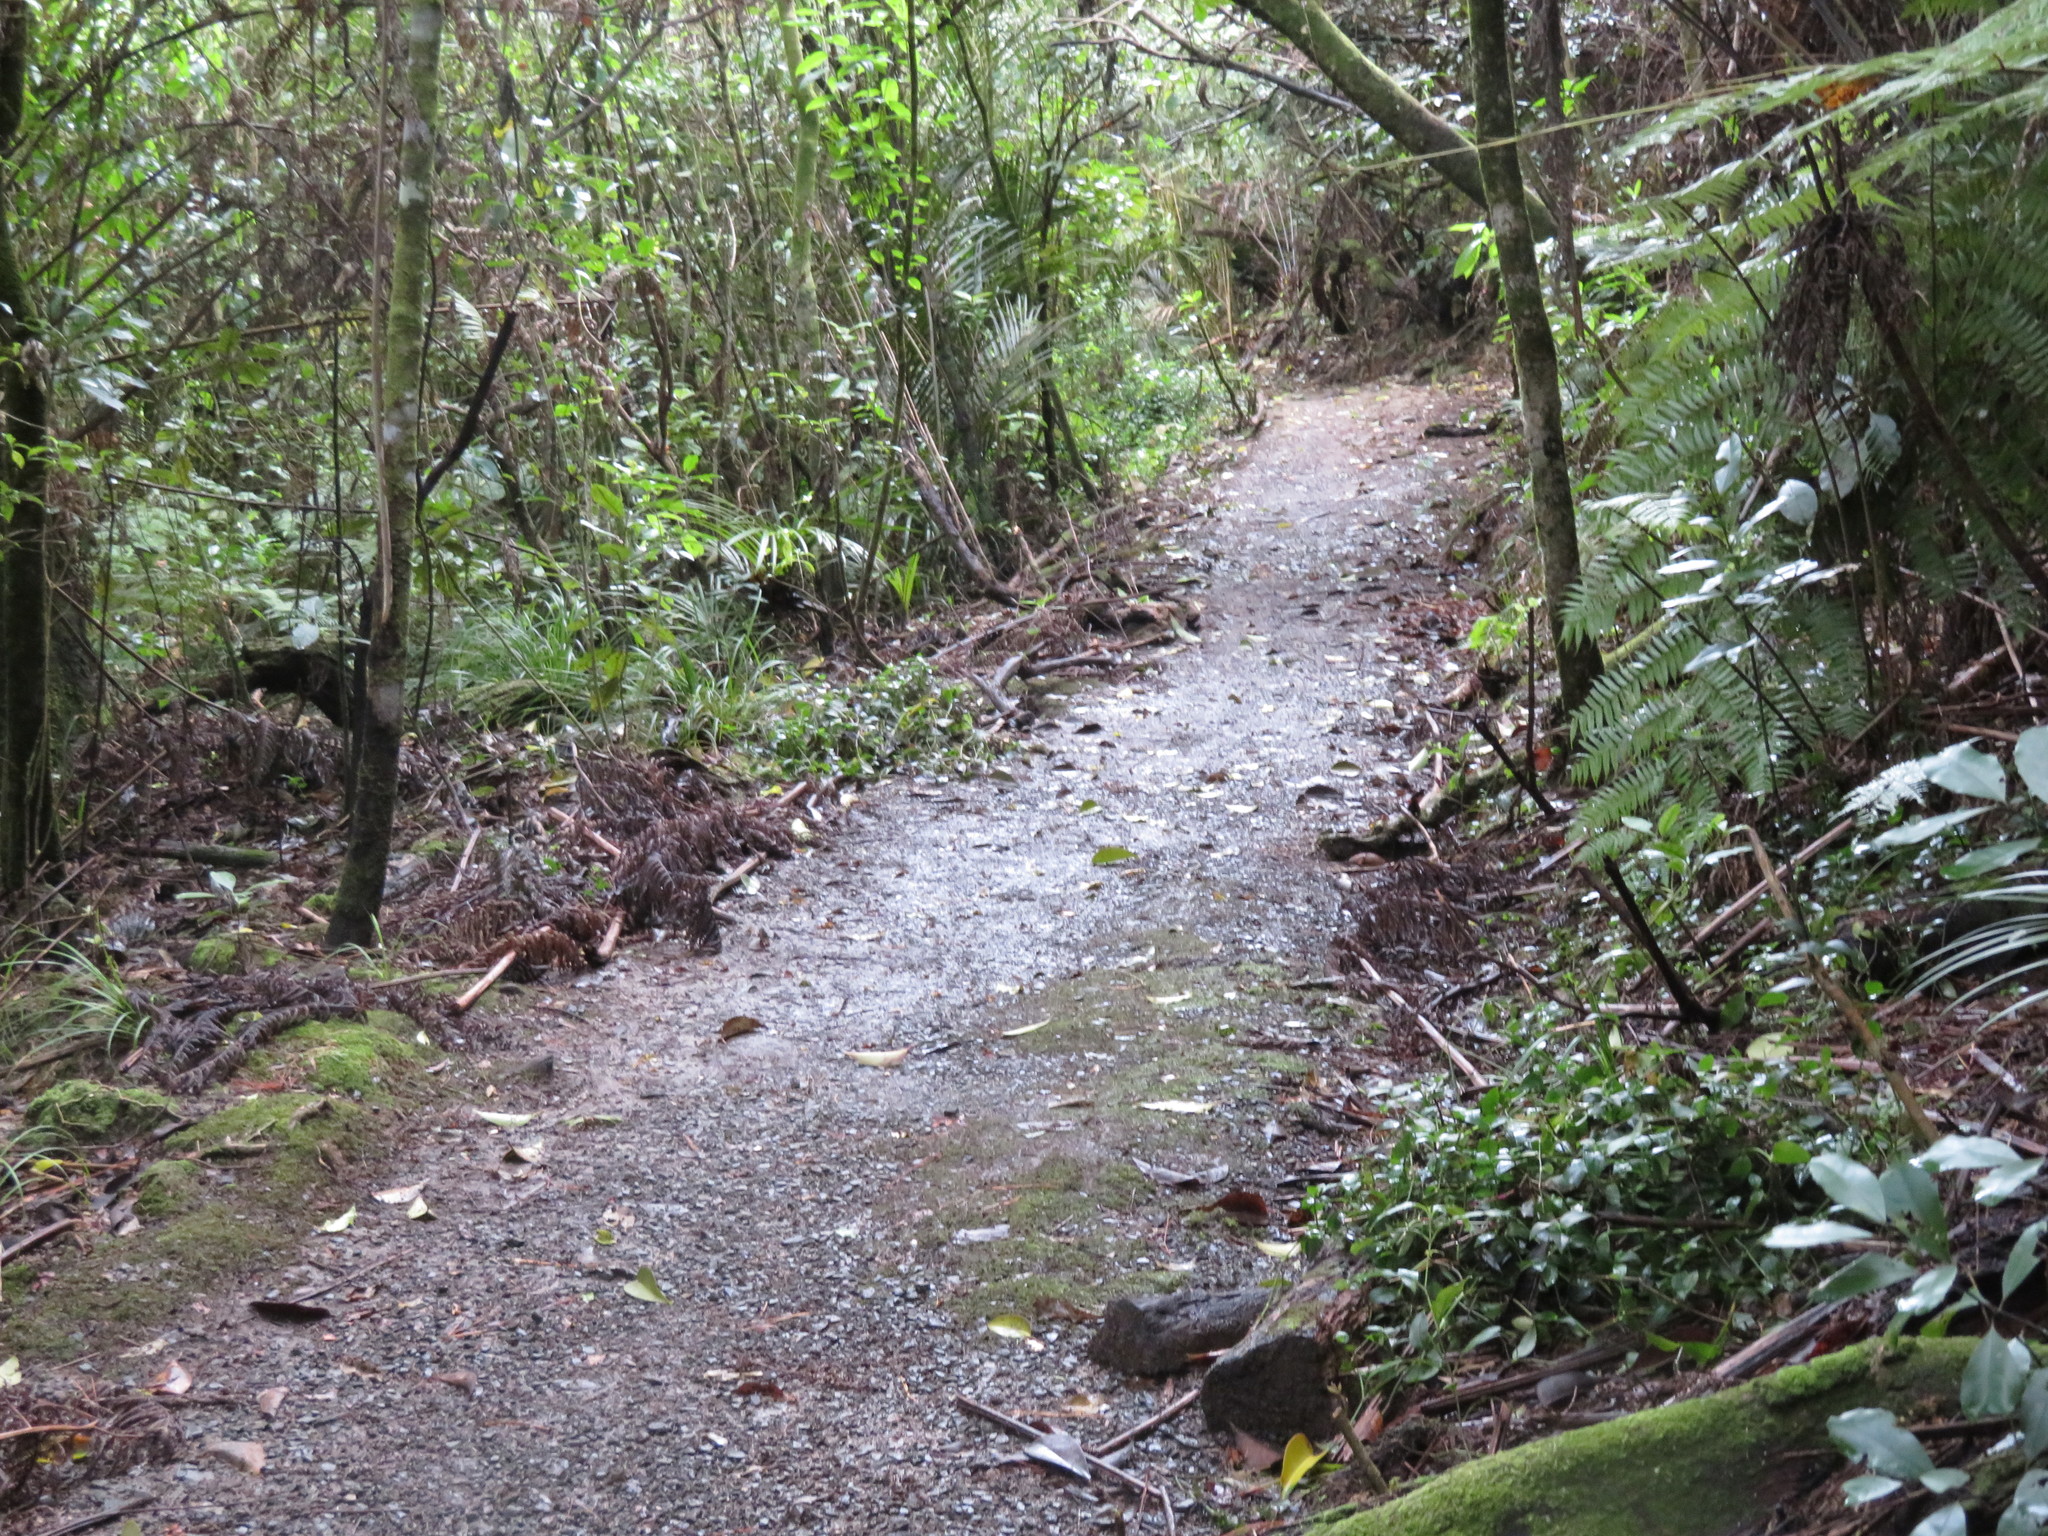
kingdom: Plantae
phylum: Tracheophyta
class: Liliopsida
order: Commelinales
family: Commelinaceae
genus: Tradescantia
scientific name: Tradescantia fluminensis
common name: Wandering-jew
